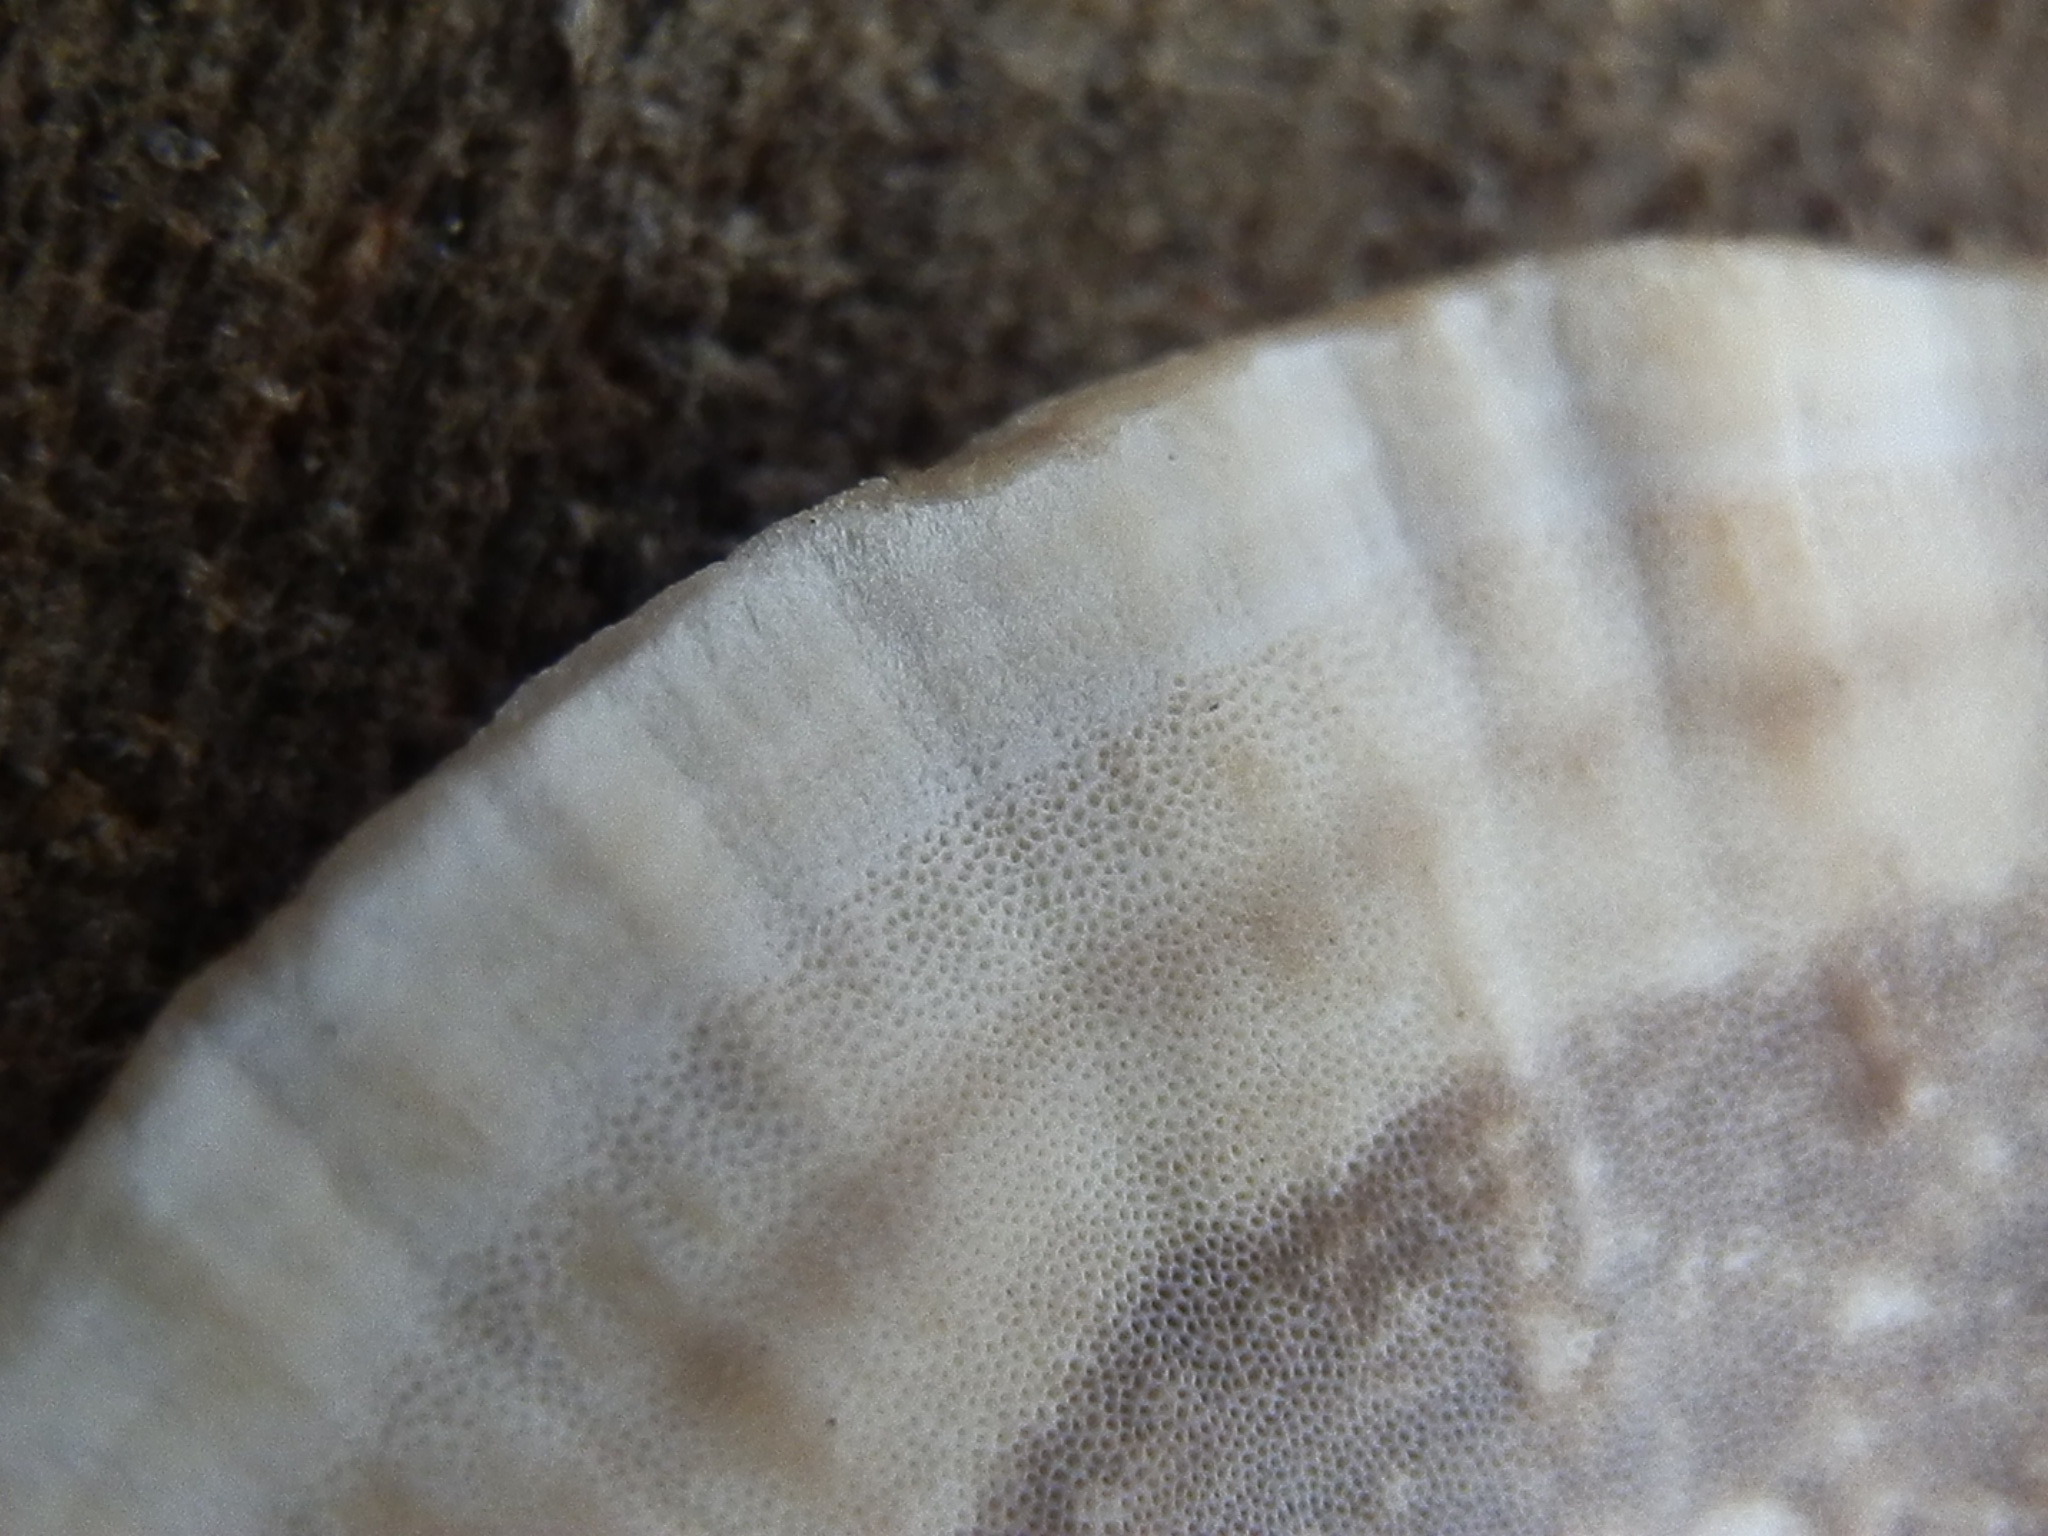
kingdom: Fungi
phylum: Basidiomycota
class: Agaricomycetes
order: Polyporales
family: Phanerochaetaceae
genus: Bjerkandera
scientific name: Bjerkandera adusta
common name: Smoky bracket
